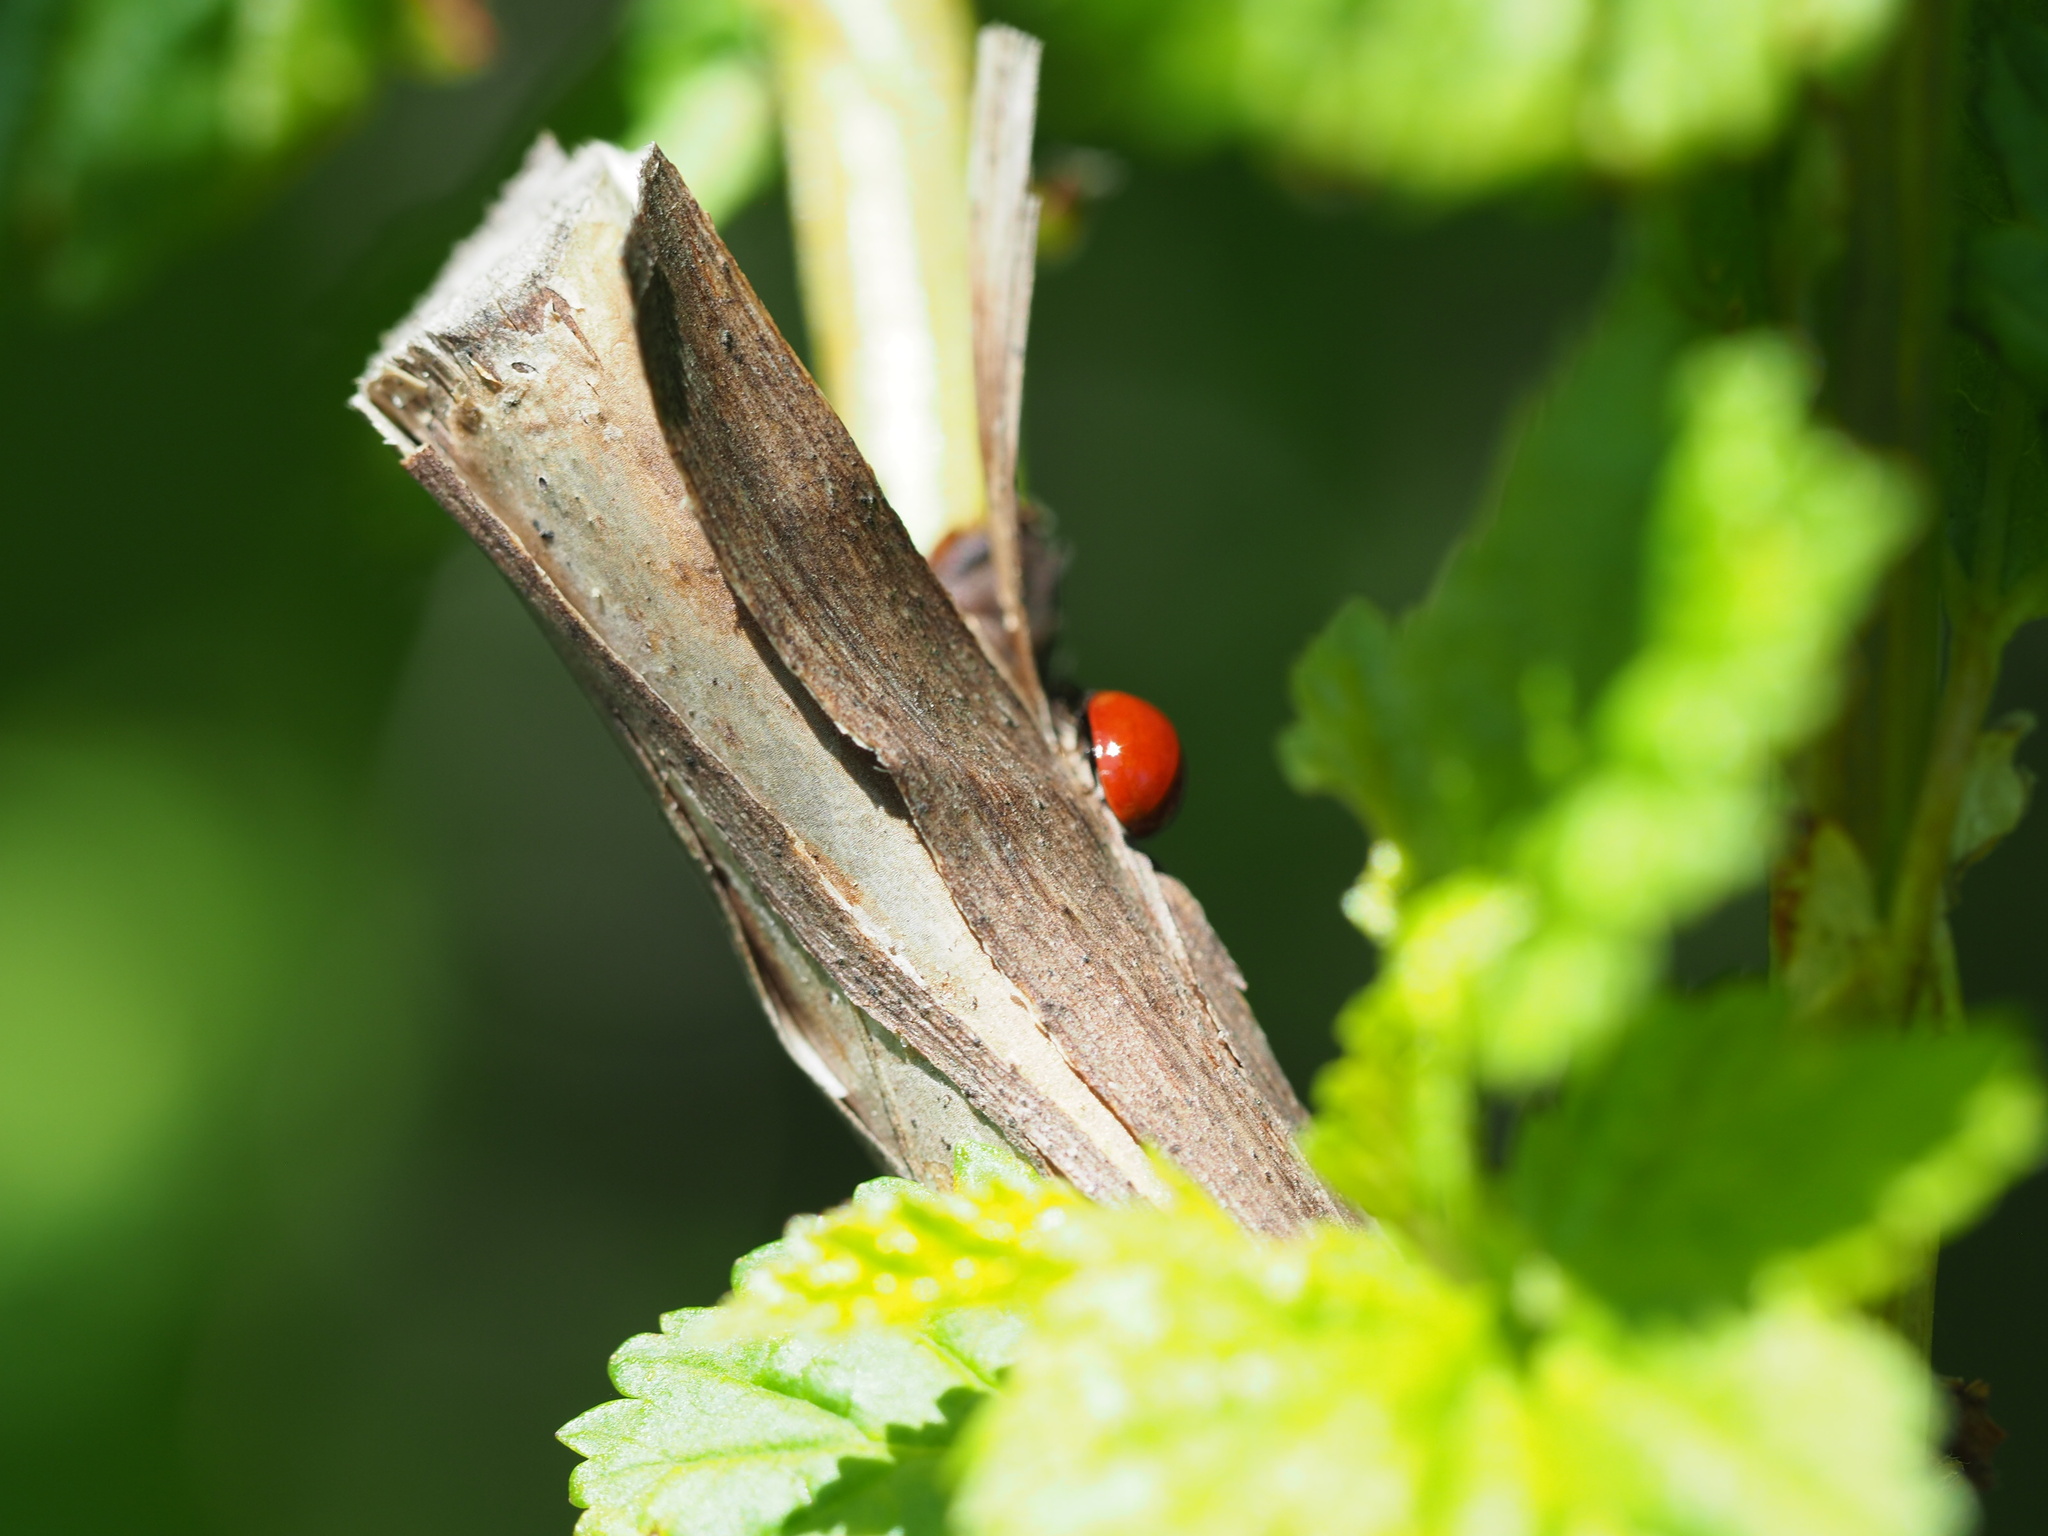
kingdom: Animalia
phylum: Arthropoda
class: Insecta
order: Coleoptera
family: Coccinellidae
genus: Cycloneda
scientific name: Cycloneda polita
